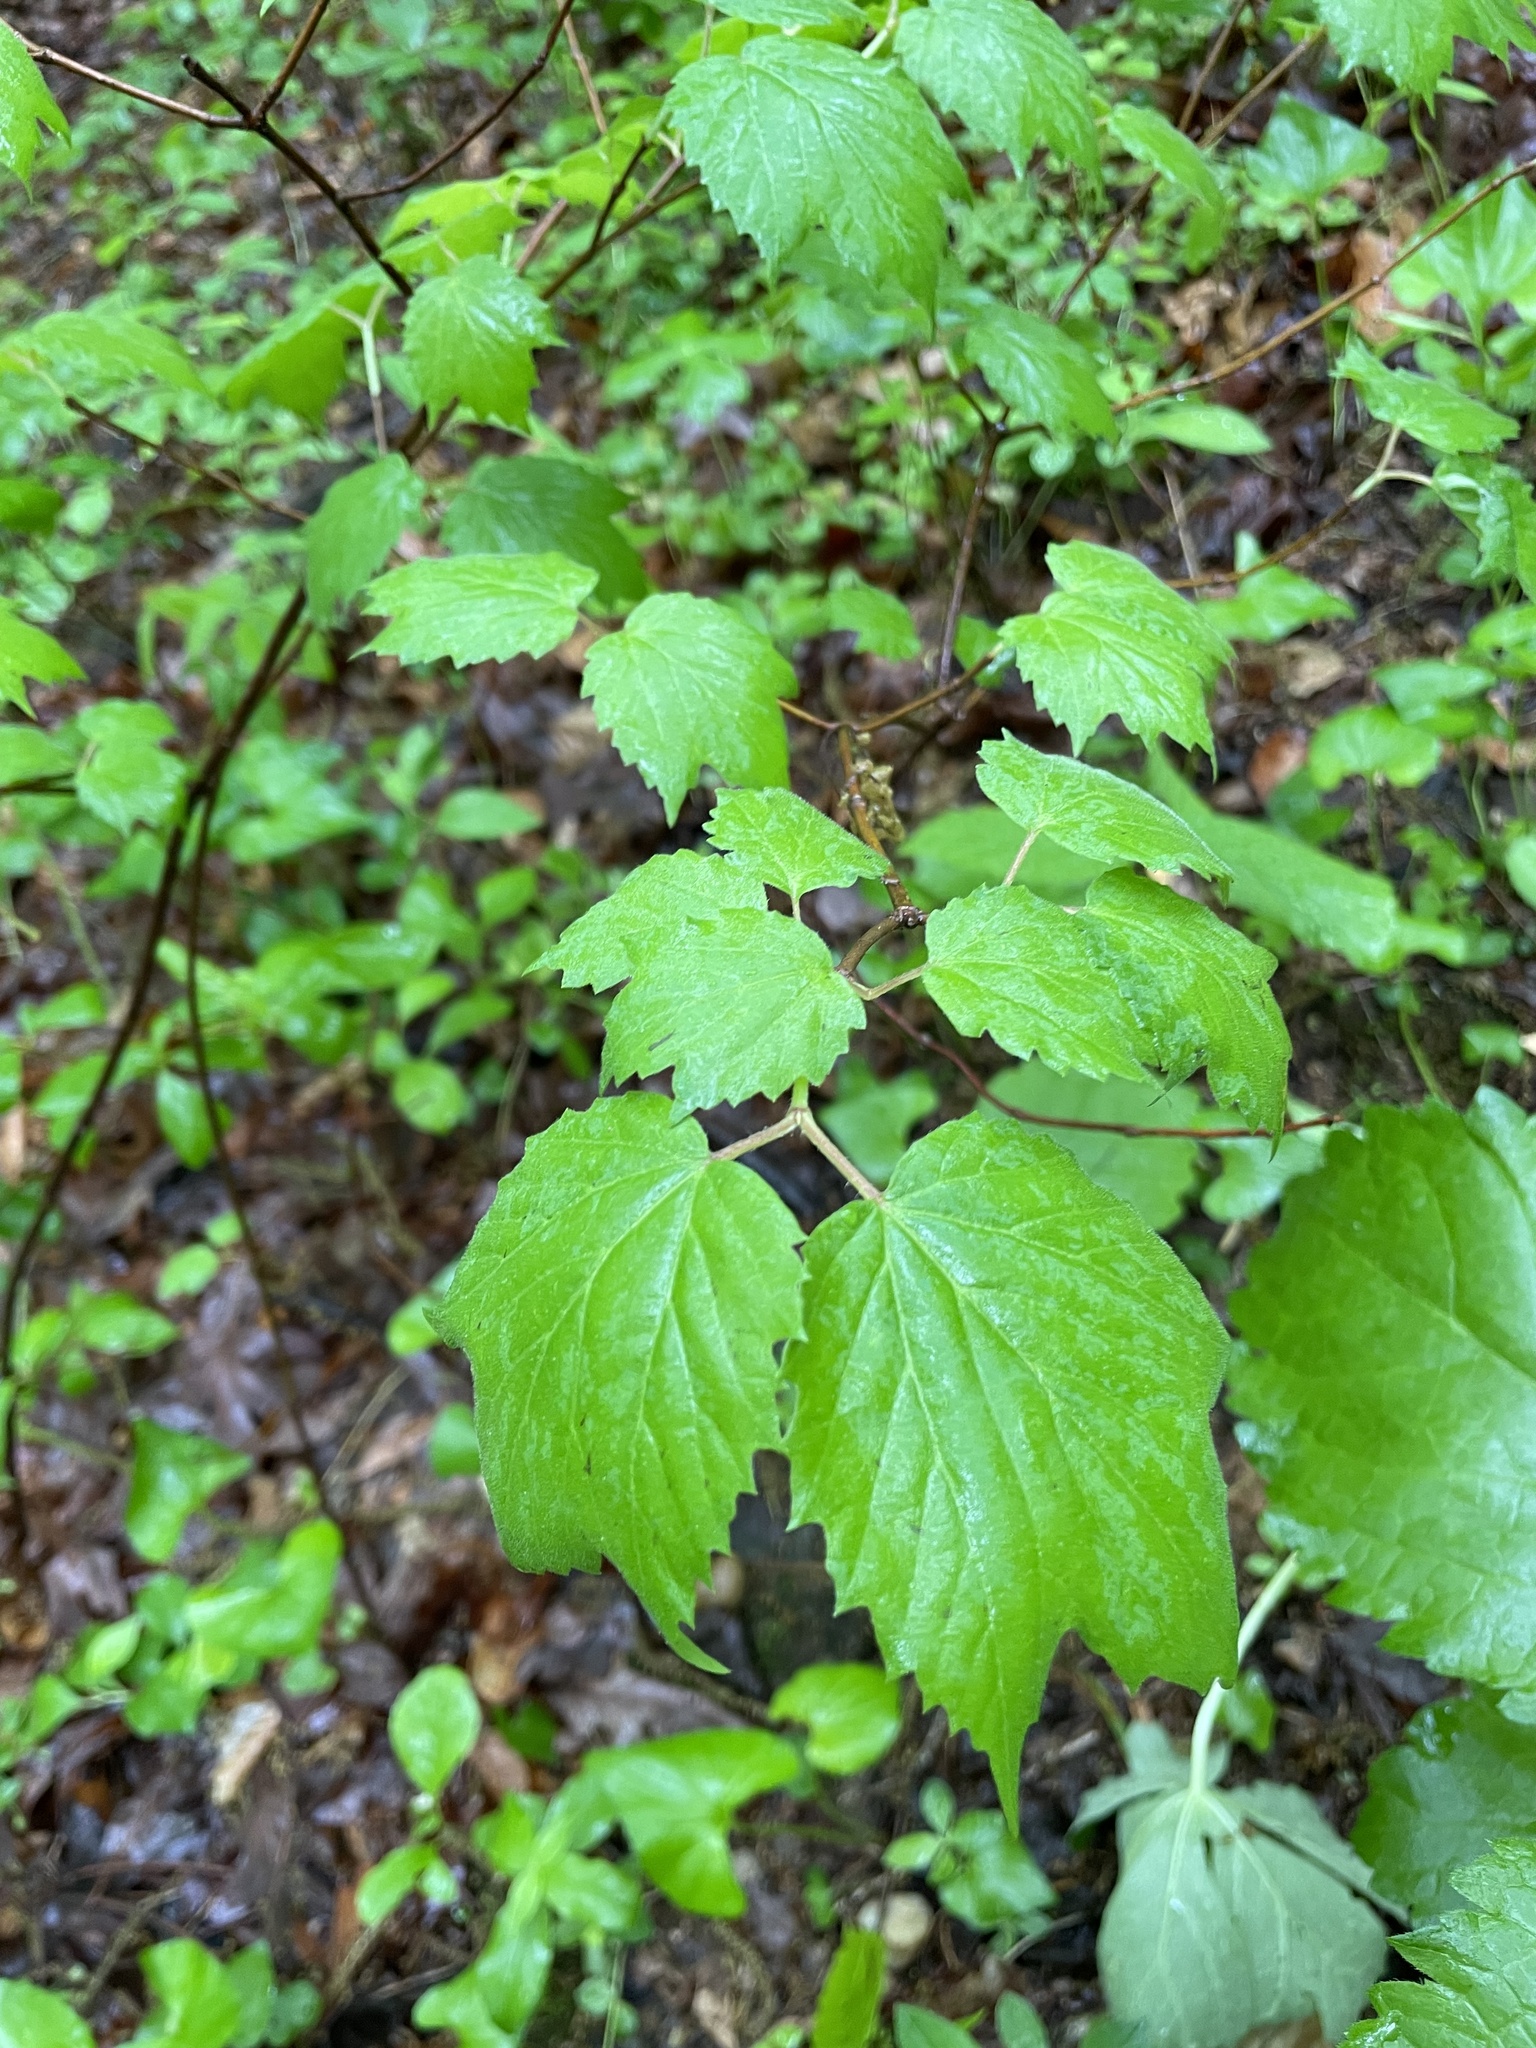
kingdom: Plantae
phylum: Tracheophyta
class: Magnoliopsida
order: Dipsacales
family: Viburnaceae
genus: Viburnum
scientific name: Viburnum acerifolium
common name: Dockmackie
